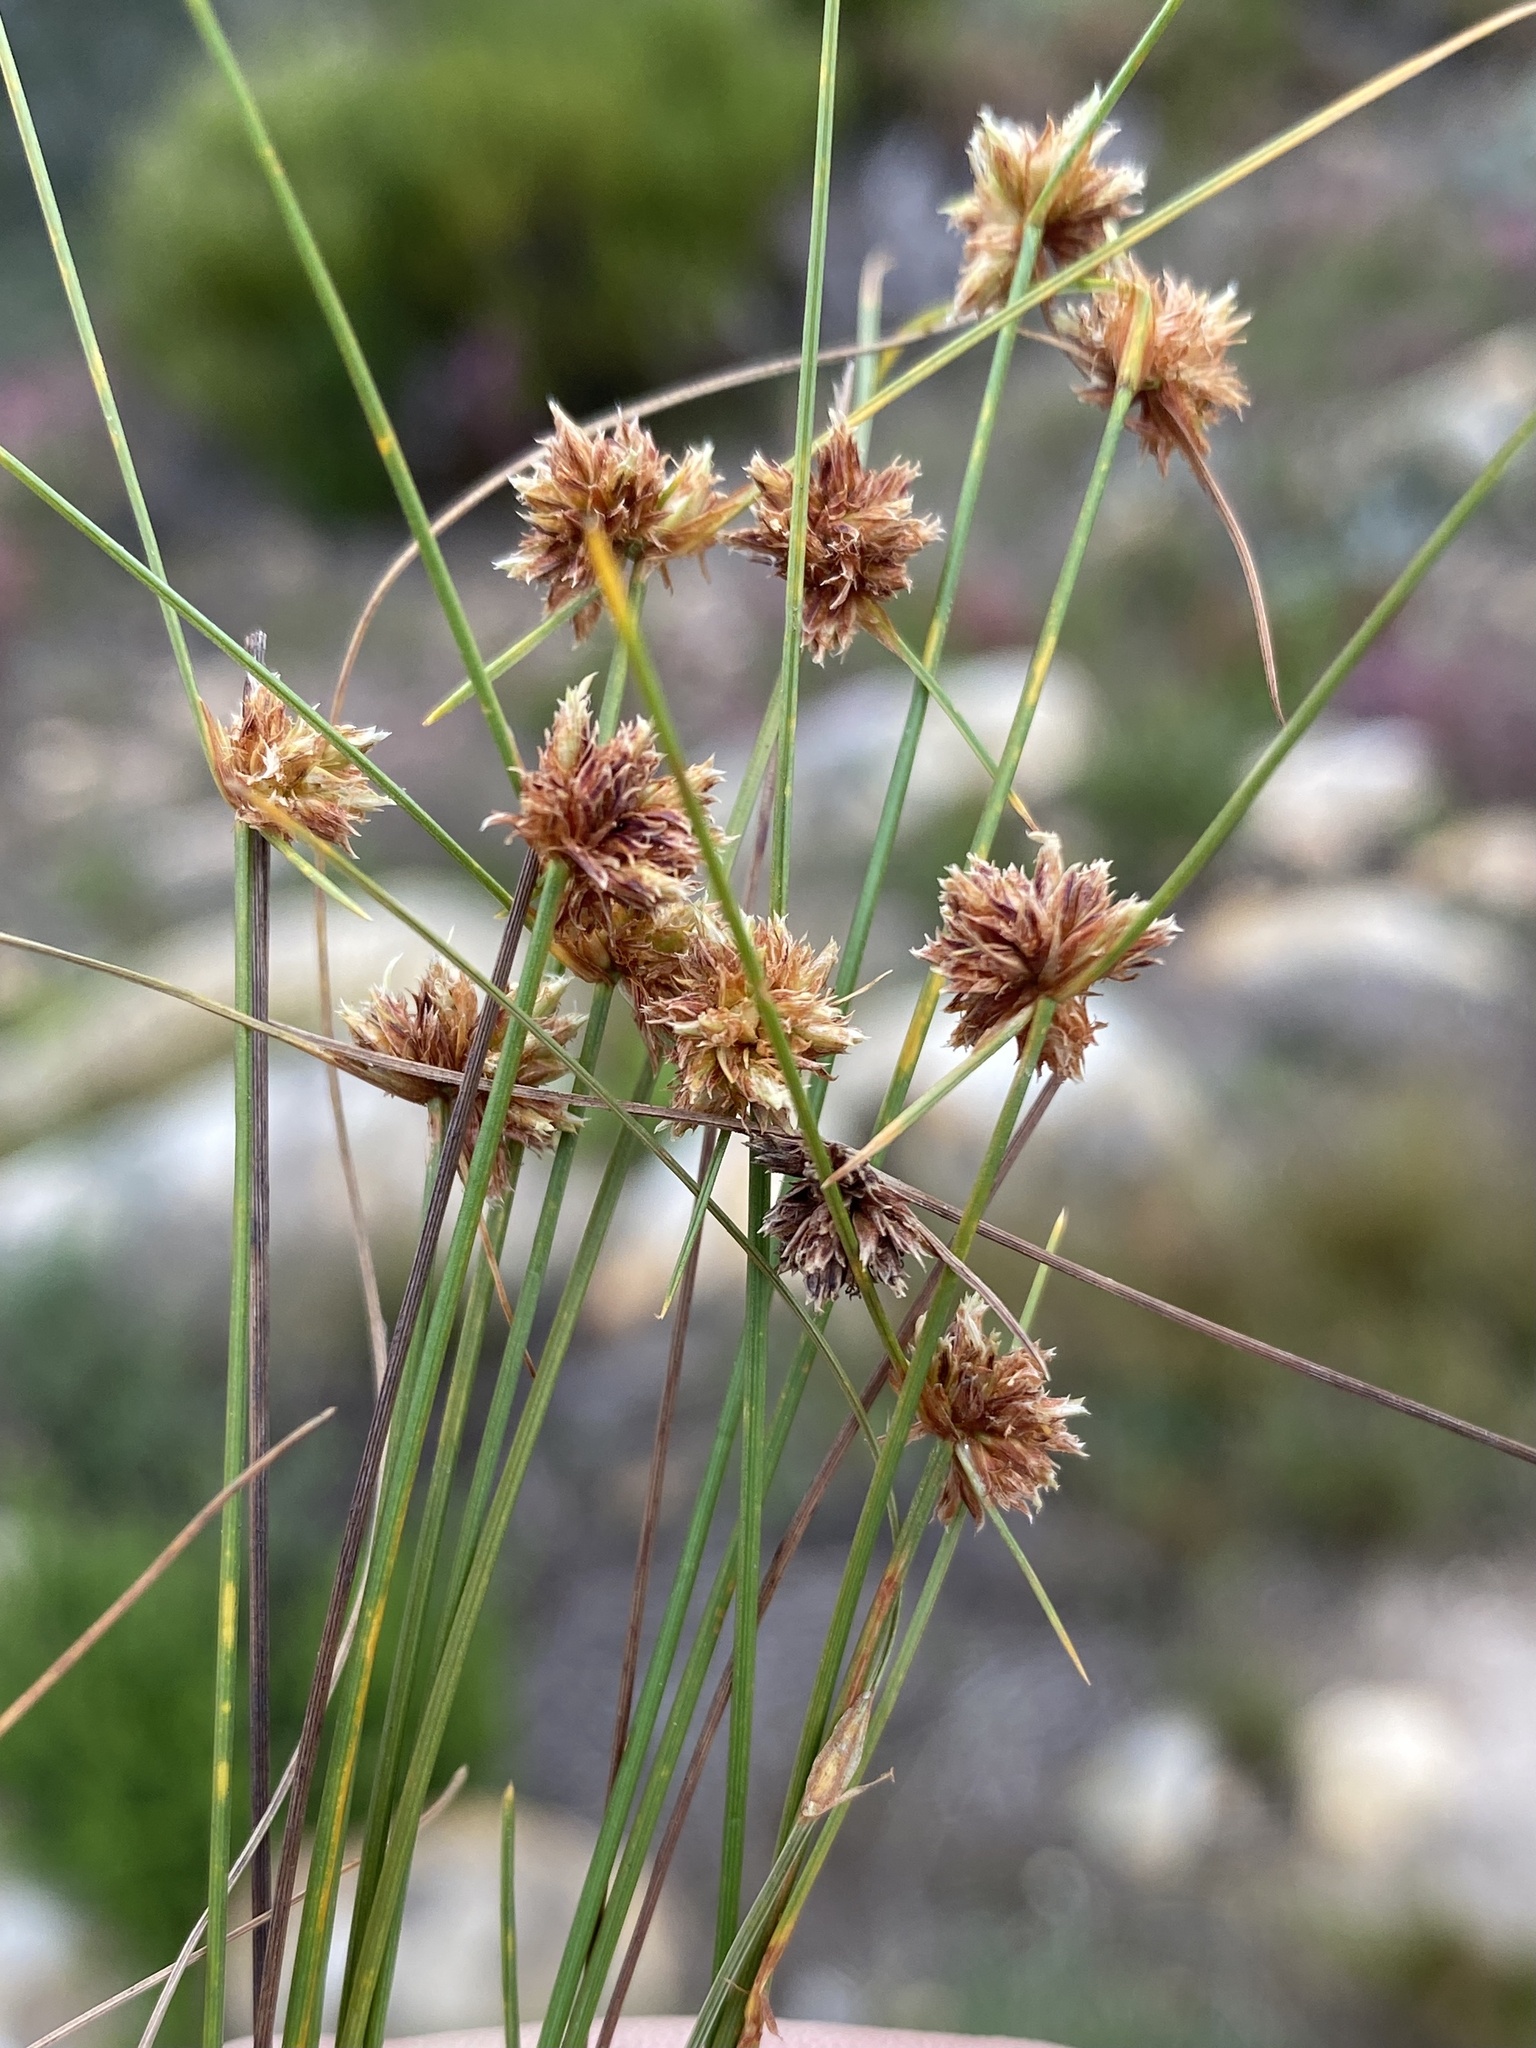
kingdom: Plantae
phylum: Tracheophyta
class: Liliopsida
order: Poales
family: Cyperaceae
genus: Ficinia
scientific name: Ficinia gracilis
